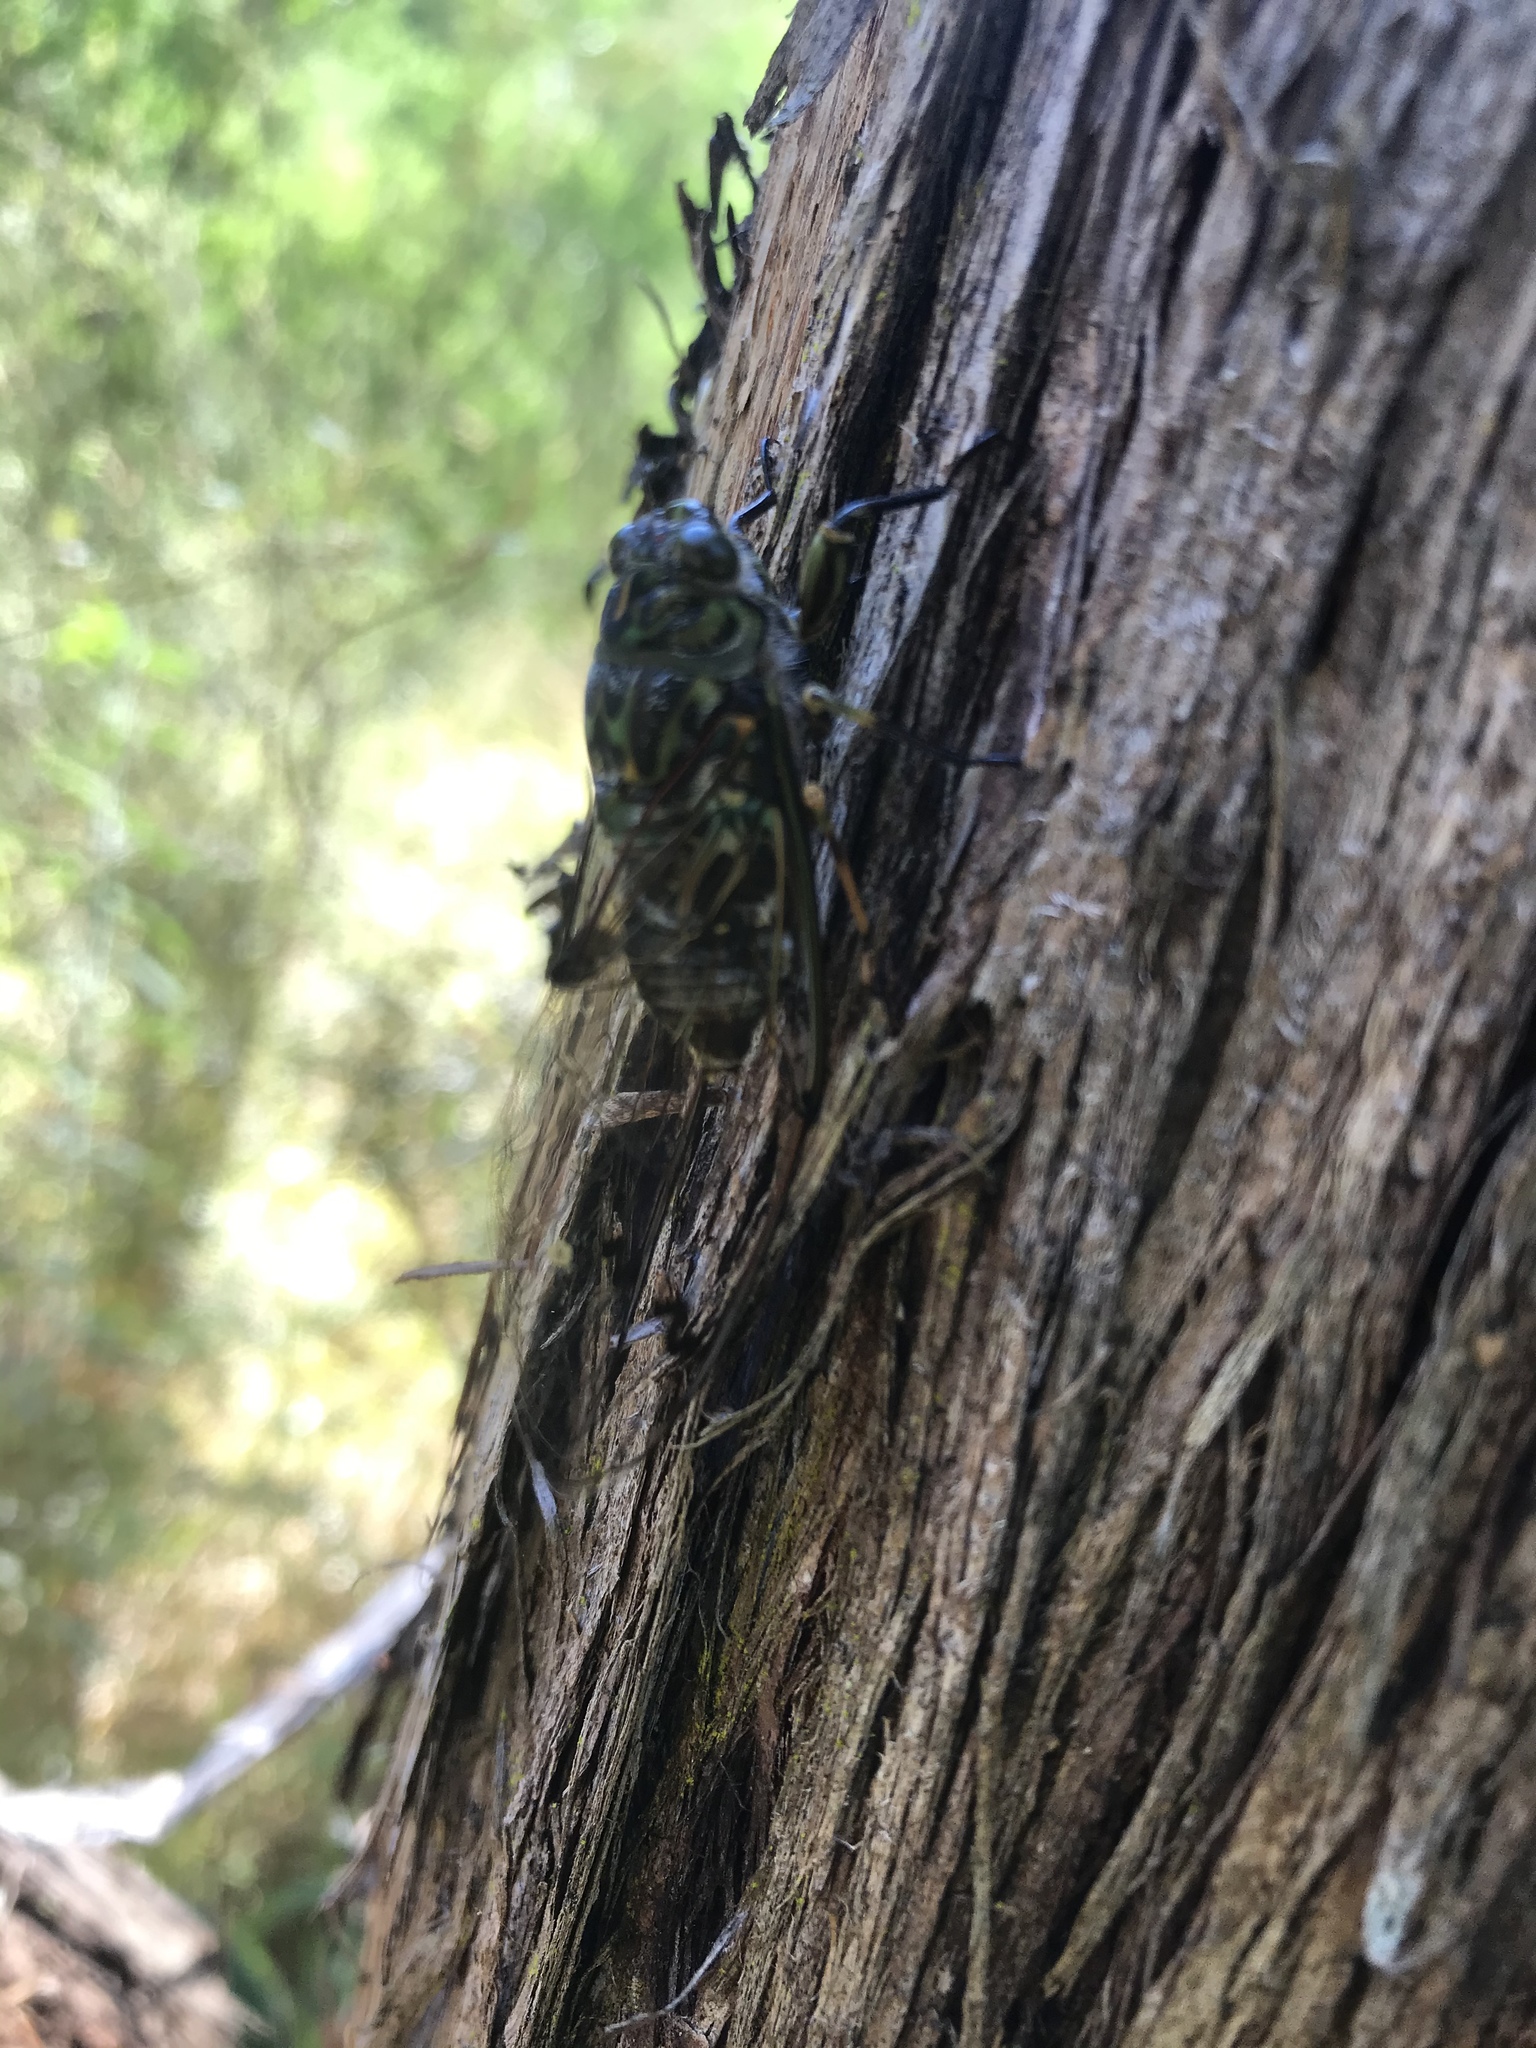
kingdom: Animalia
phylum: Arthropoda
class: Insecta
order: Hemiptera
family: Cicadidae
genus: Amphipsalta
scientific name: Amphipsalta zelandica
